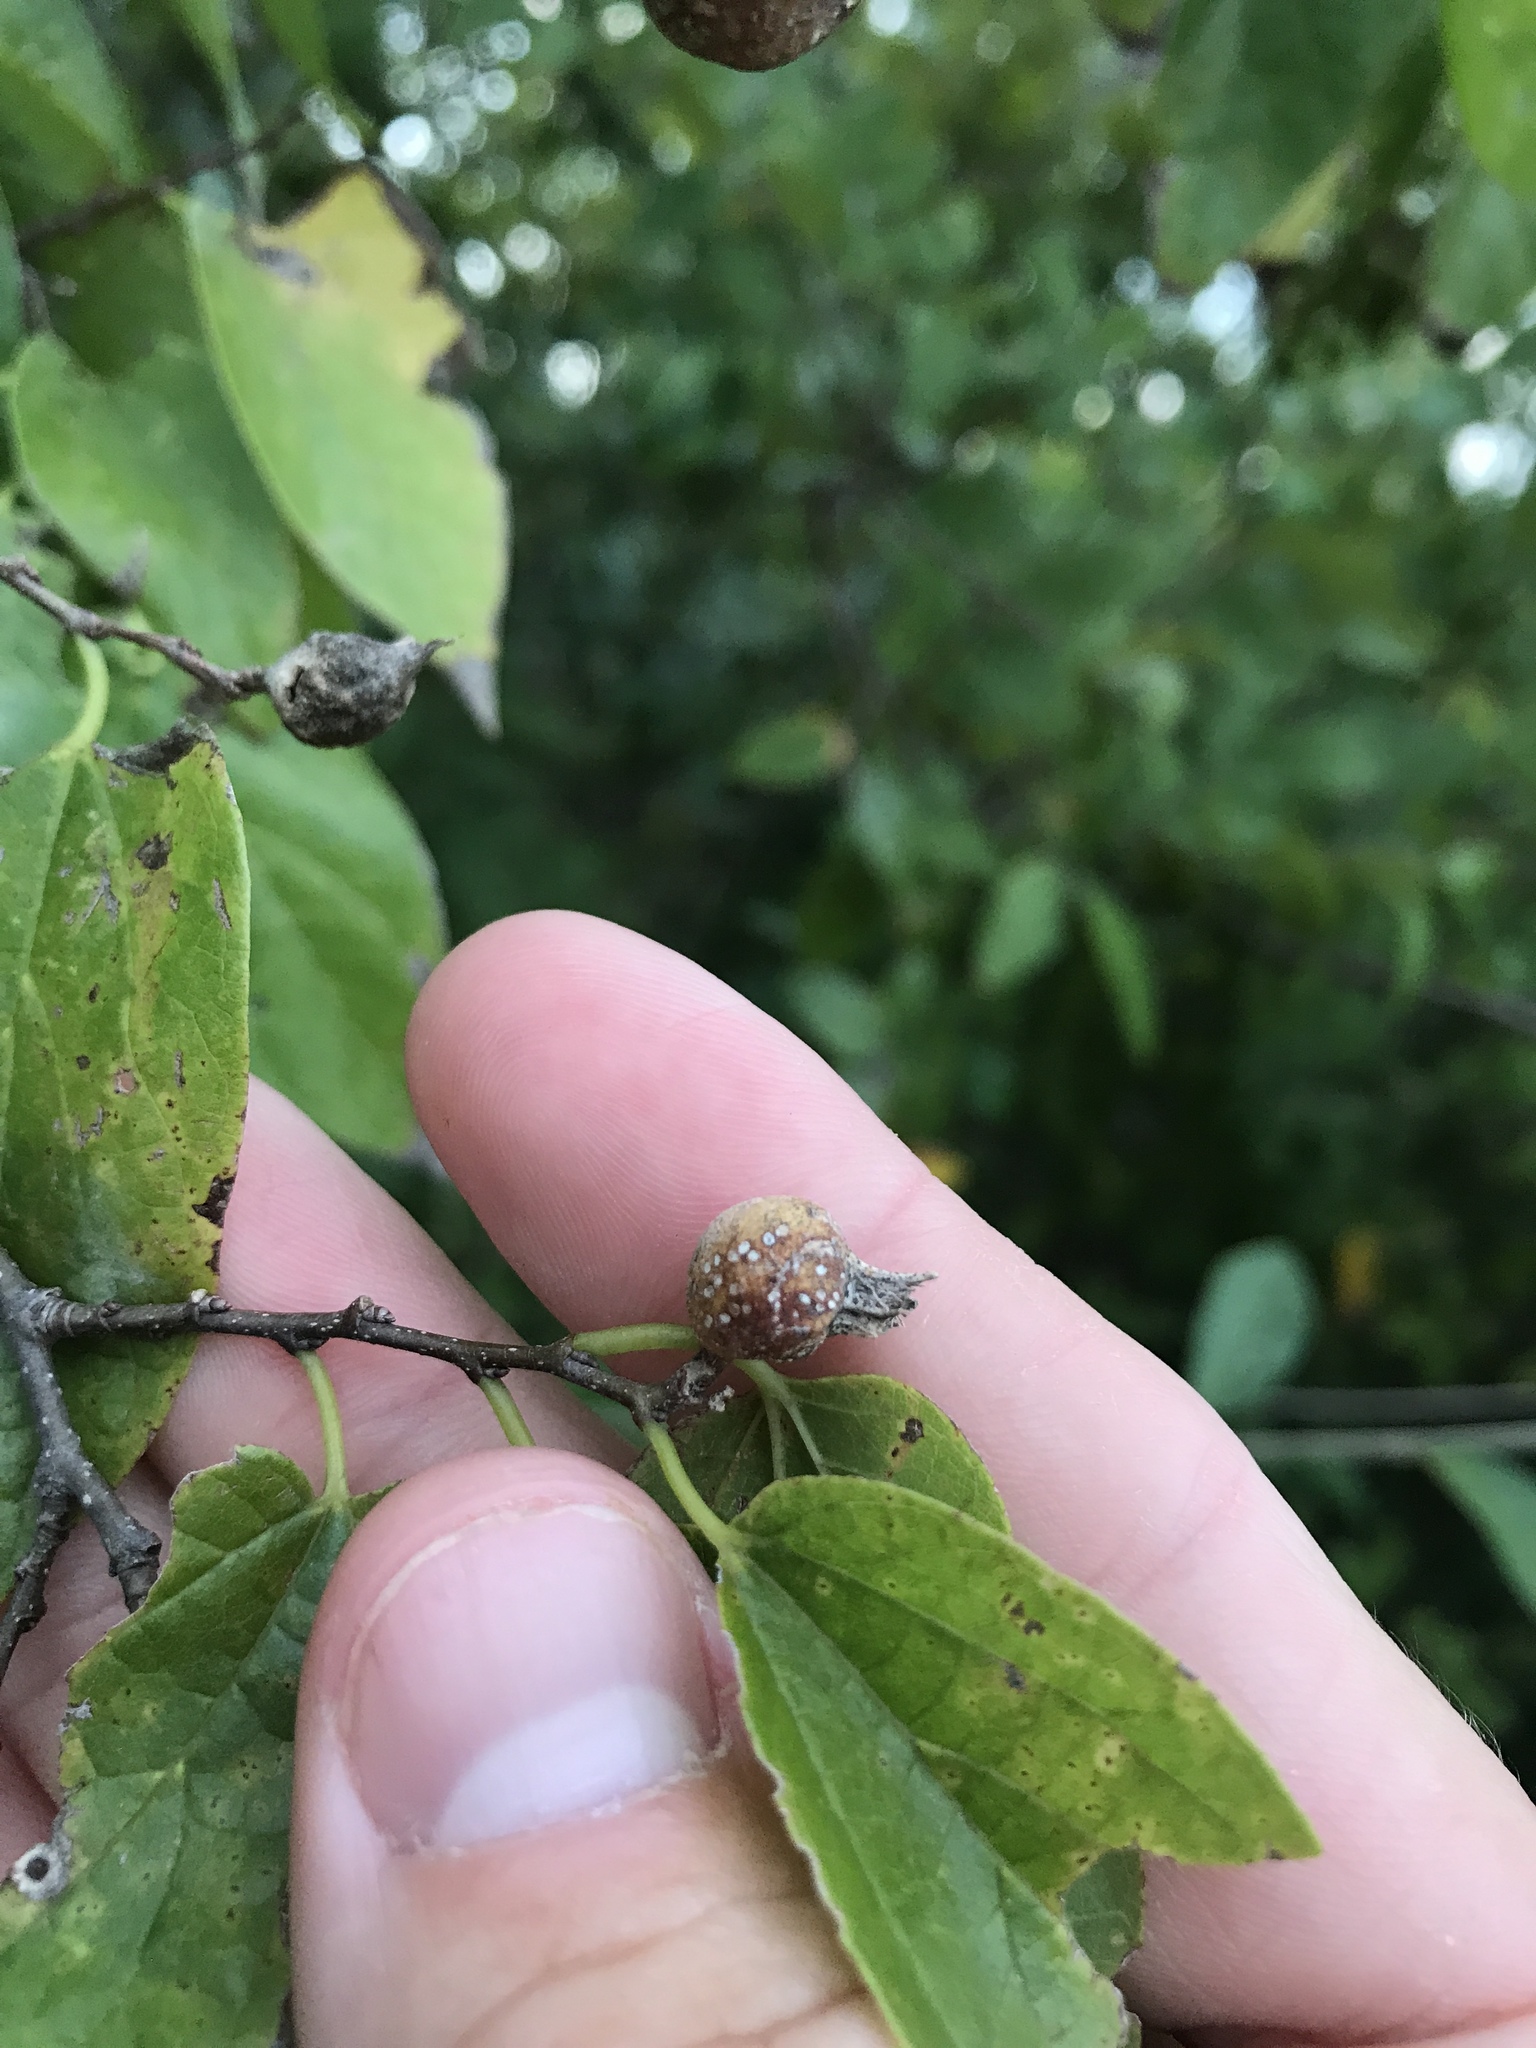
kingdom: Animalia
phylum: Arthropoda
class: Insecta
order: Hemiptera
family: Aphalaridae
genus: Pachypsylla
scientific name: Pachypsylla venusta
